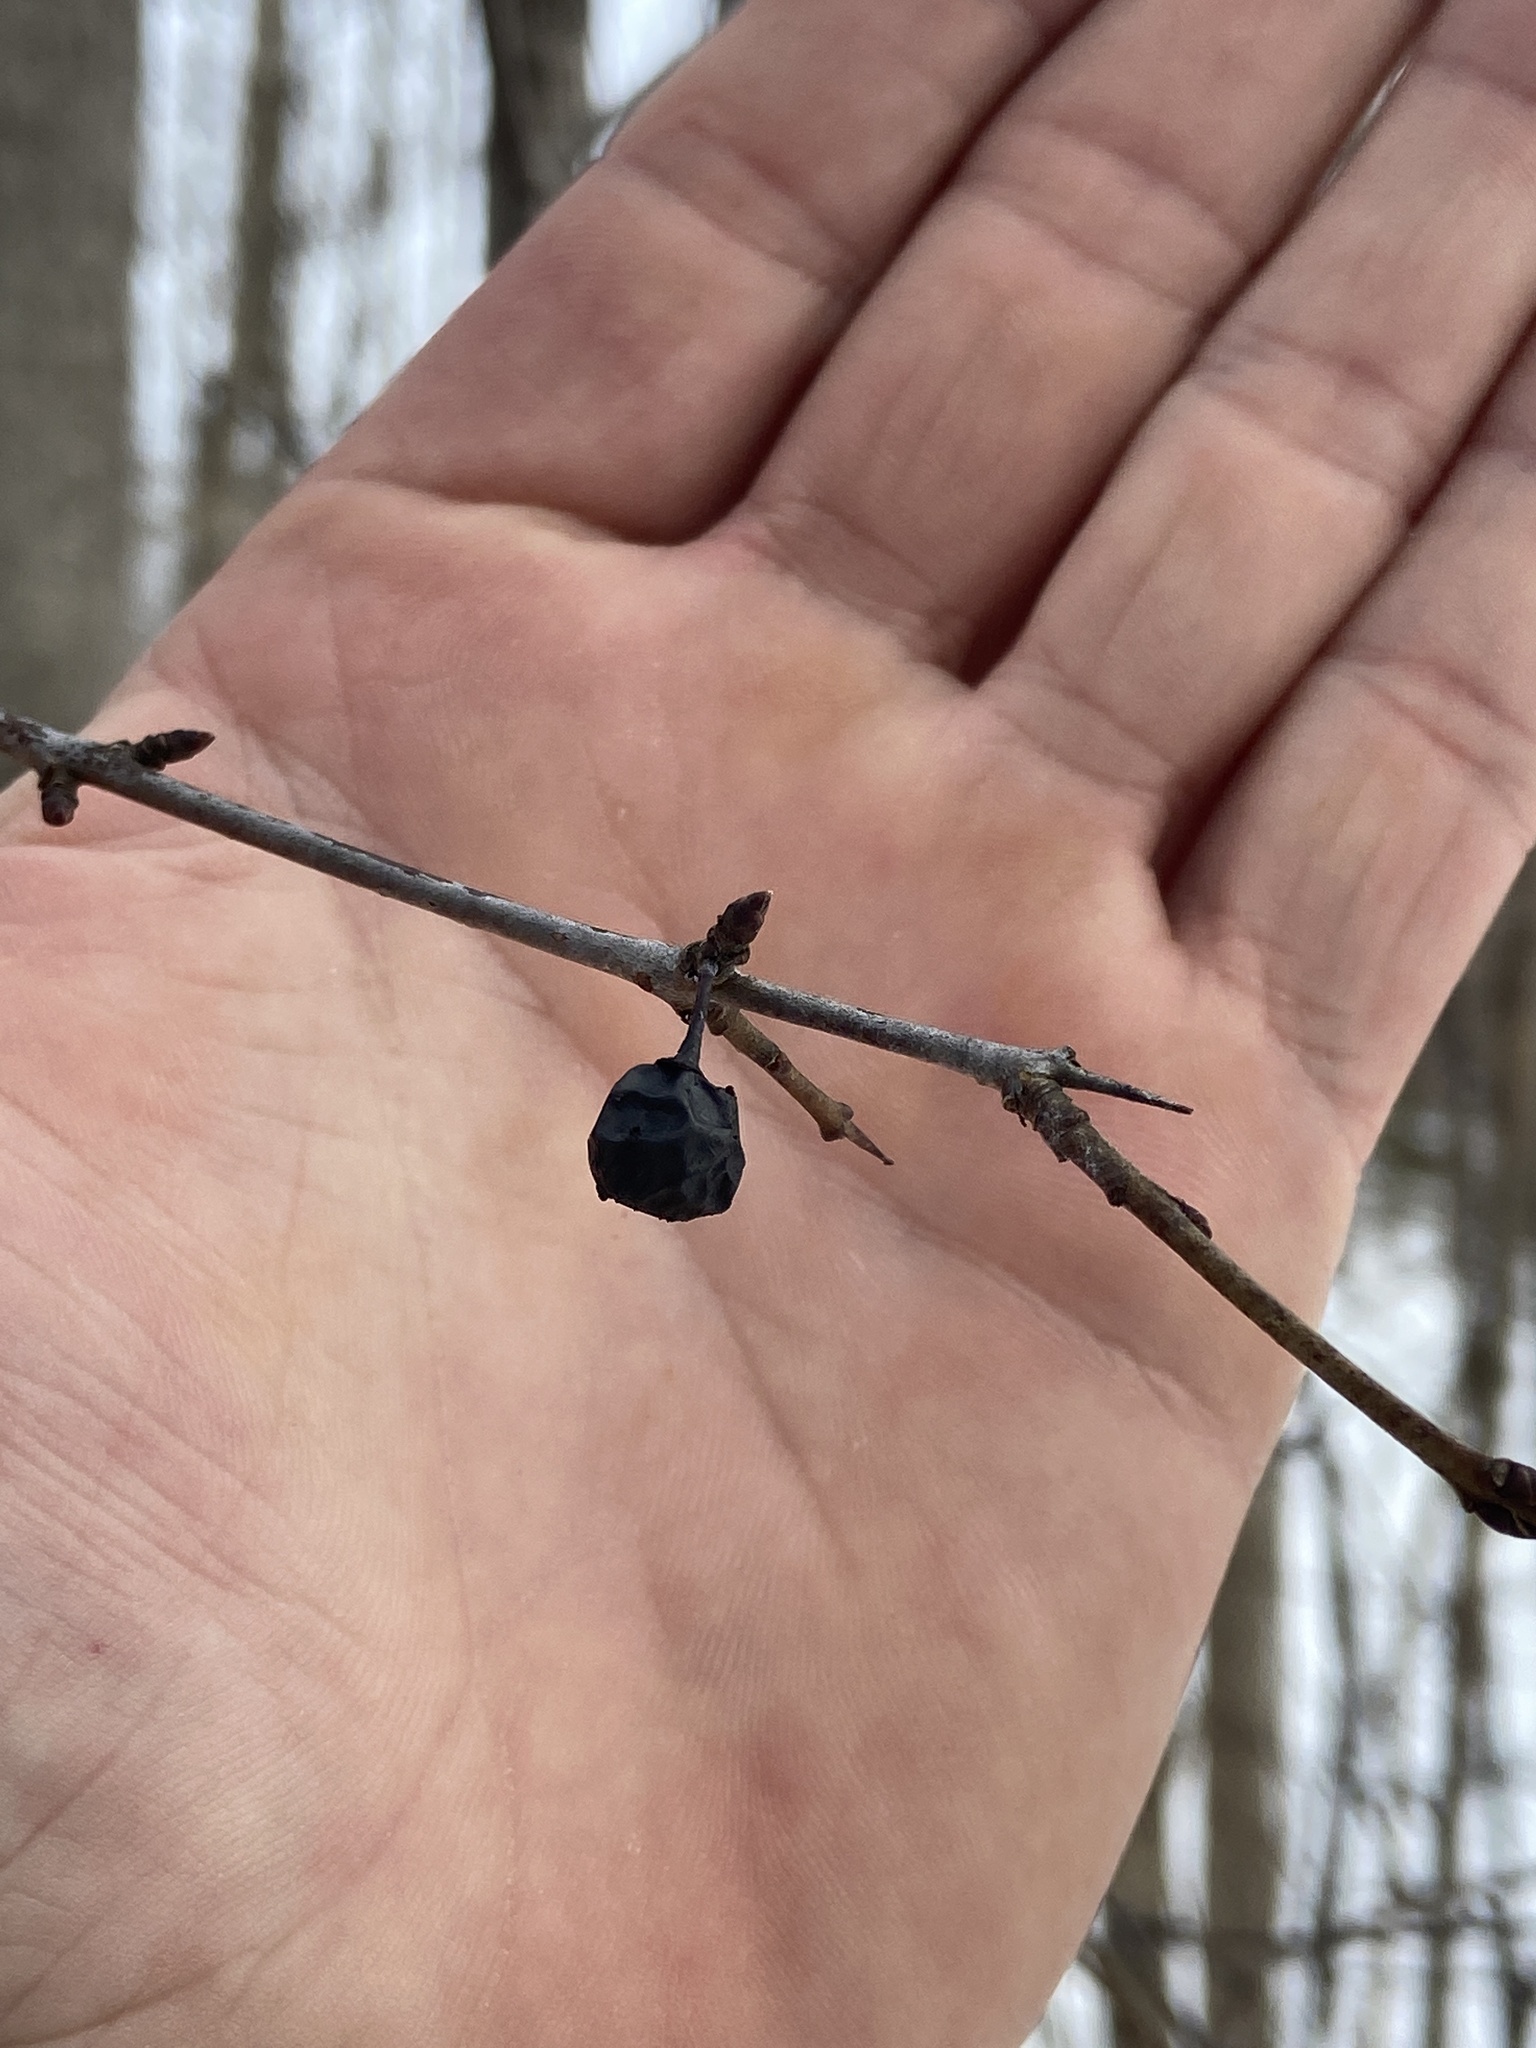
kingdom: Plantae
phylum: Tracheophyta
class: Magnoliopsida
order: Rosales
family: Rhamnaceae
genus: Rhamnus
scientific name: Rhamnus cathartica
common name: Common buckthorn
